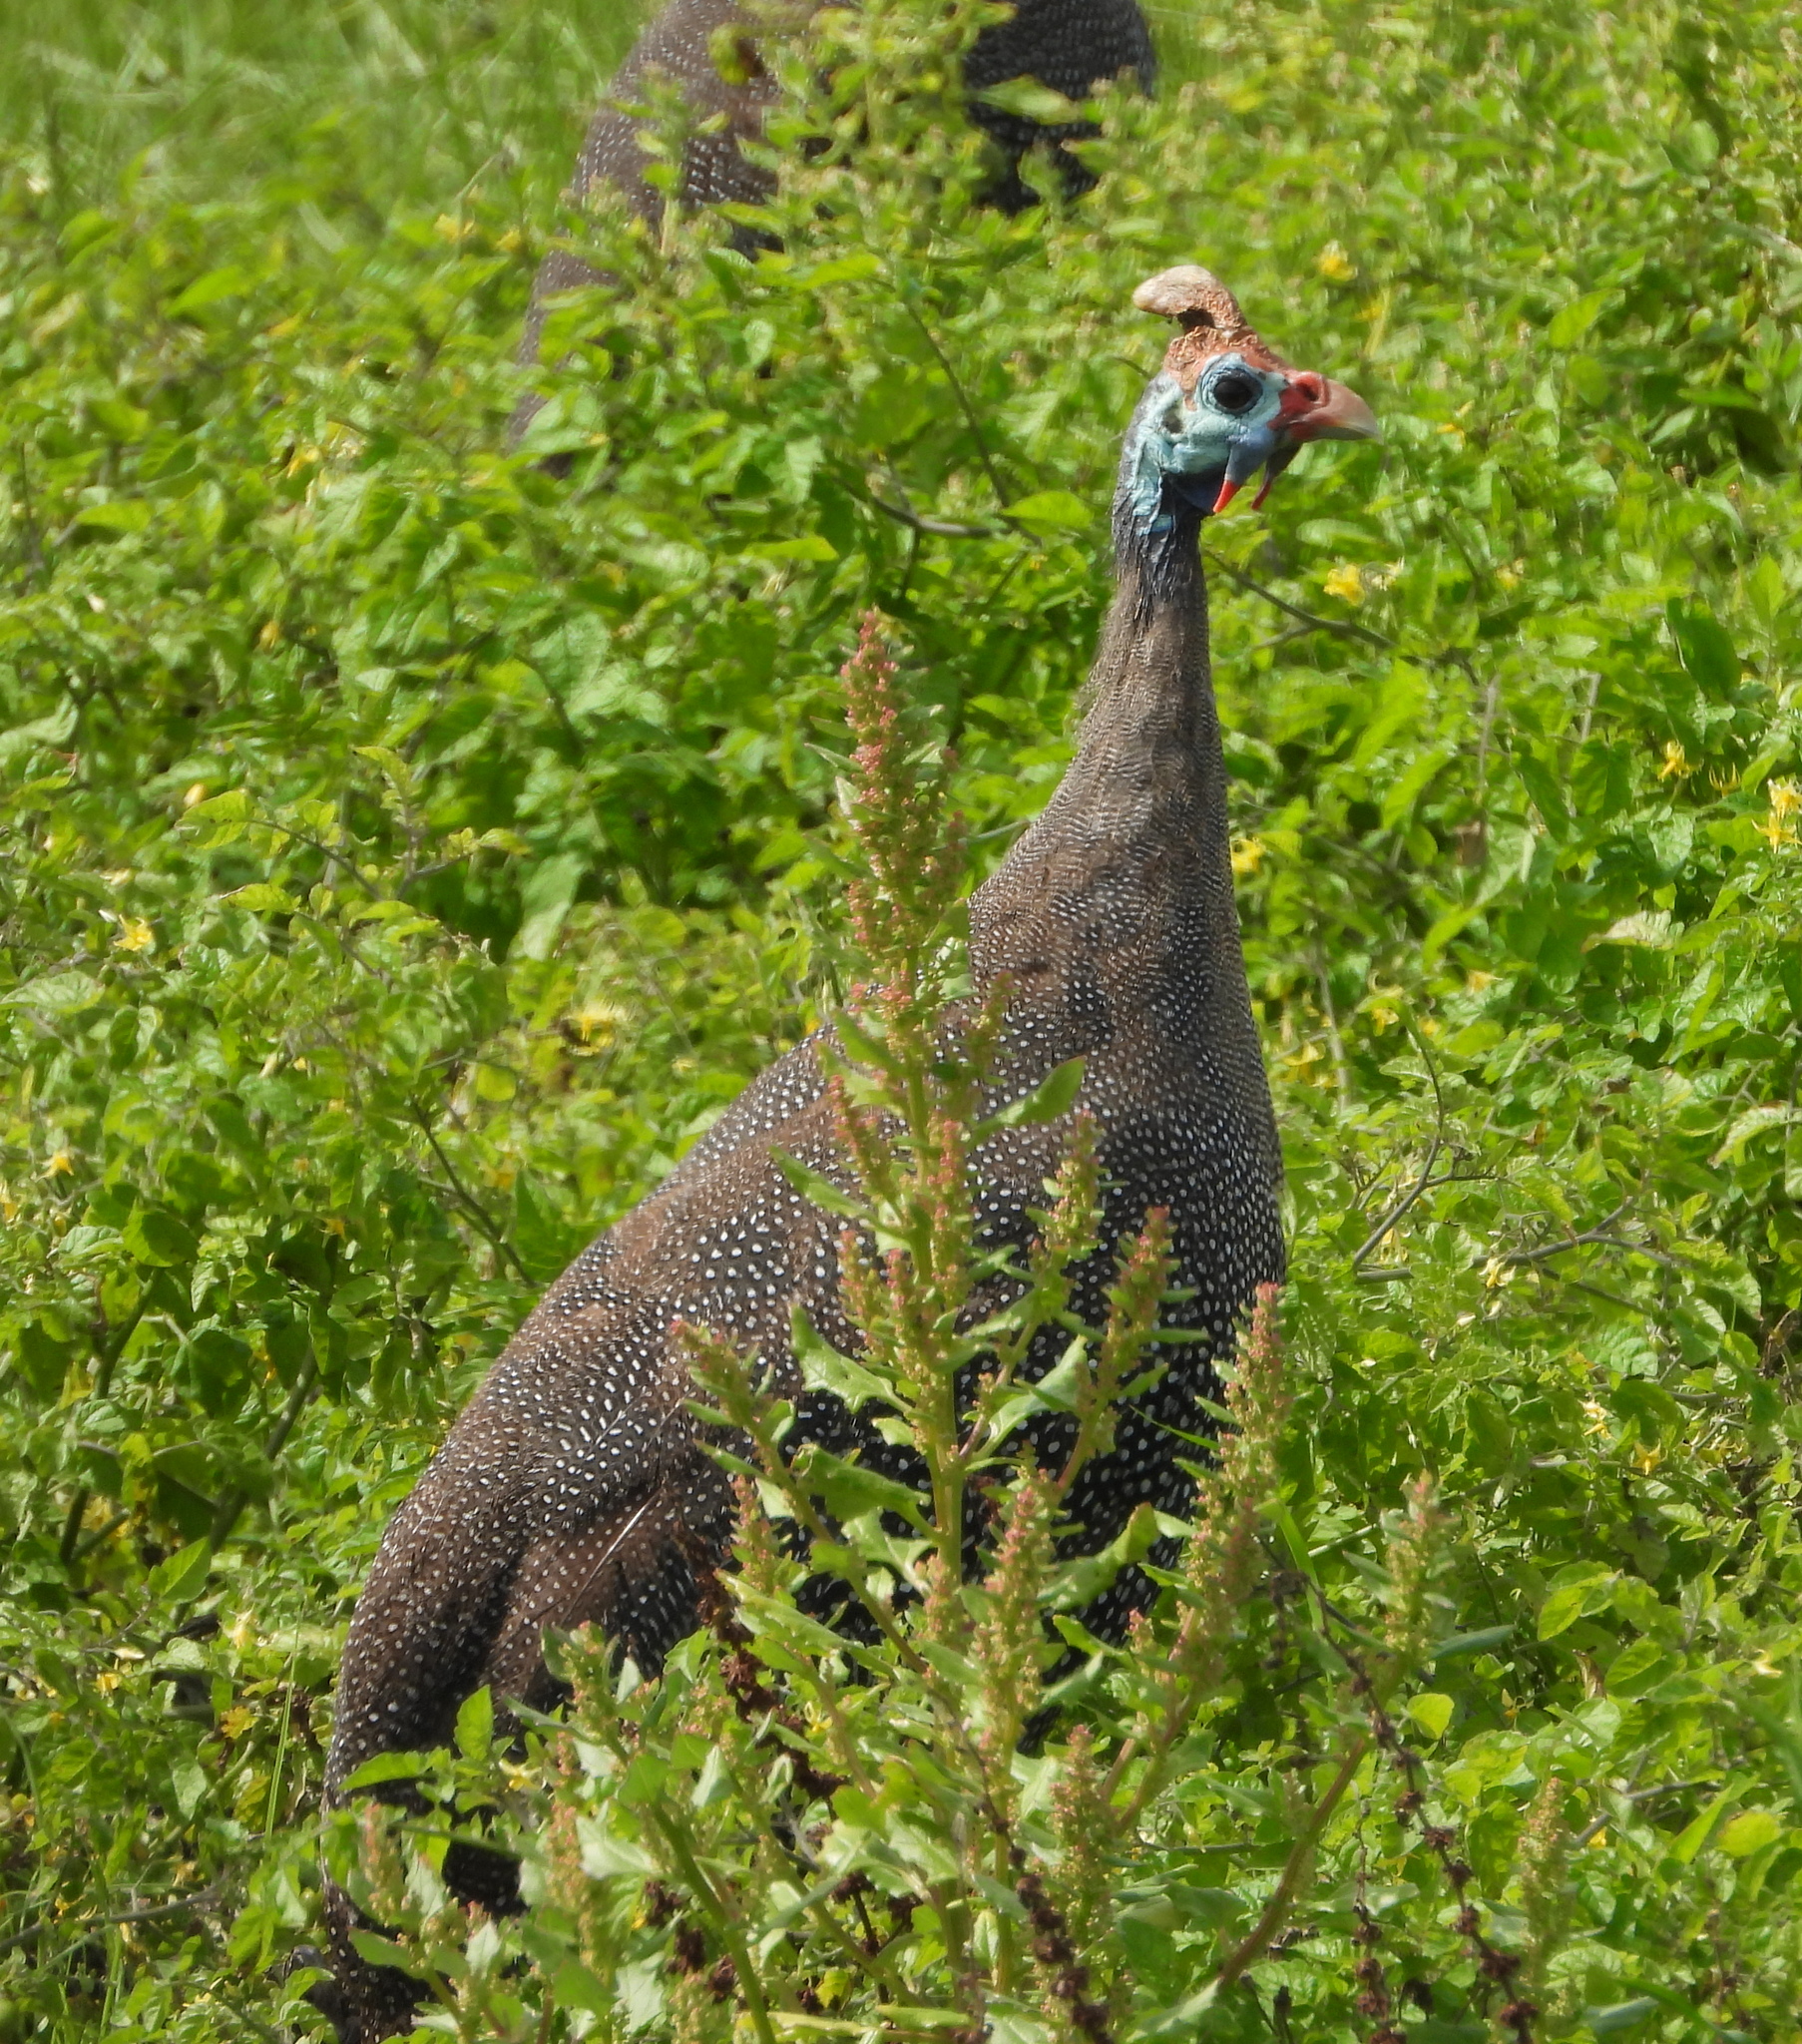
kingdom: Animalia
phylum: Chordata
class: Aves
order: Galliformes
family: Numididae
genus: Numida
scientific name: Numida meleagris
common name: Helmeted guineafowl
